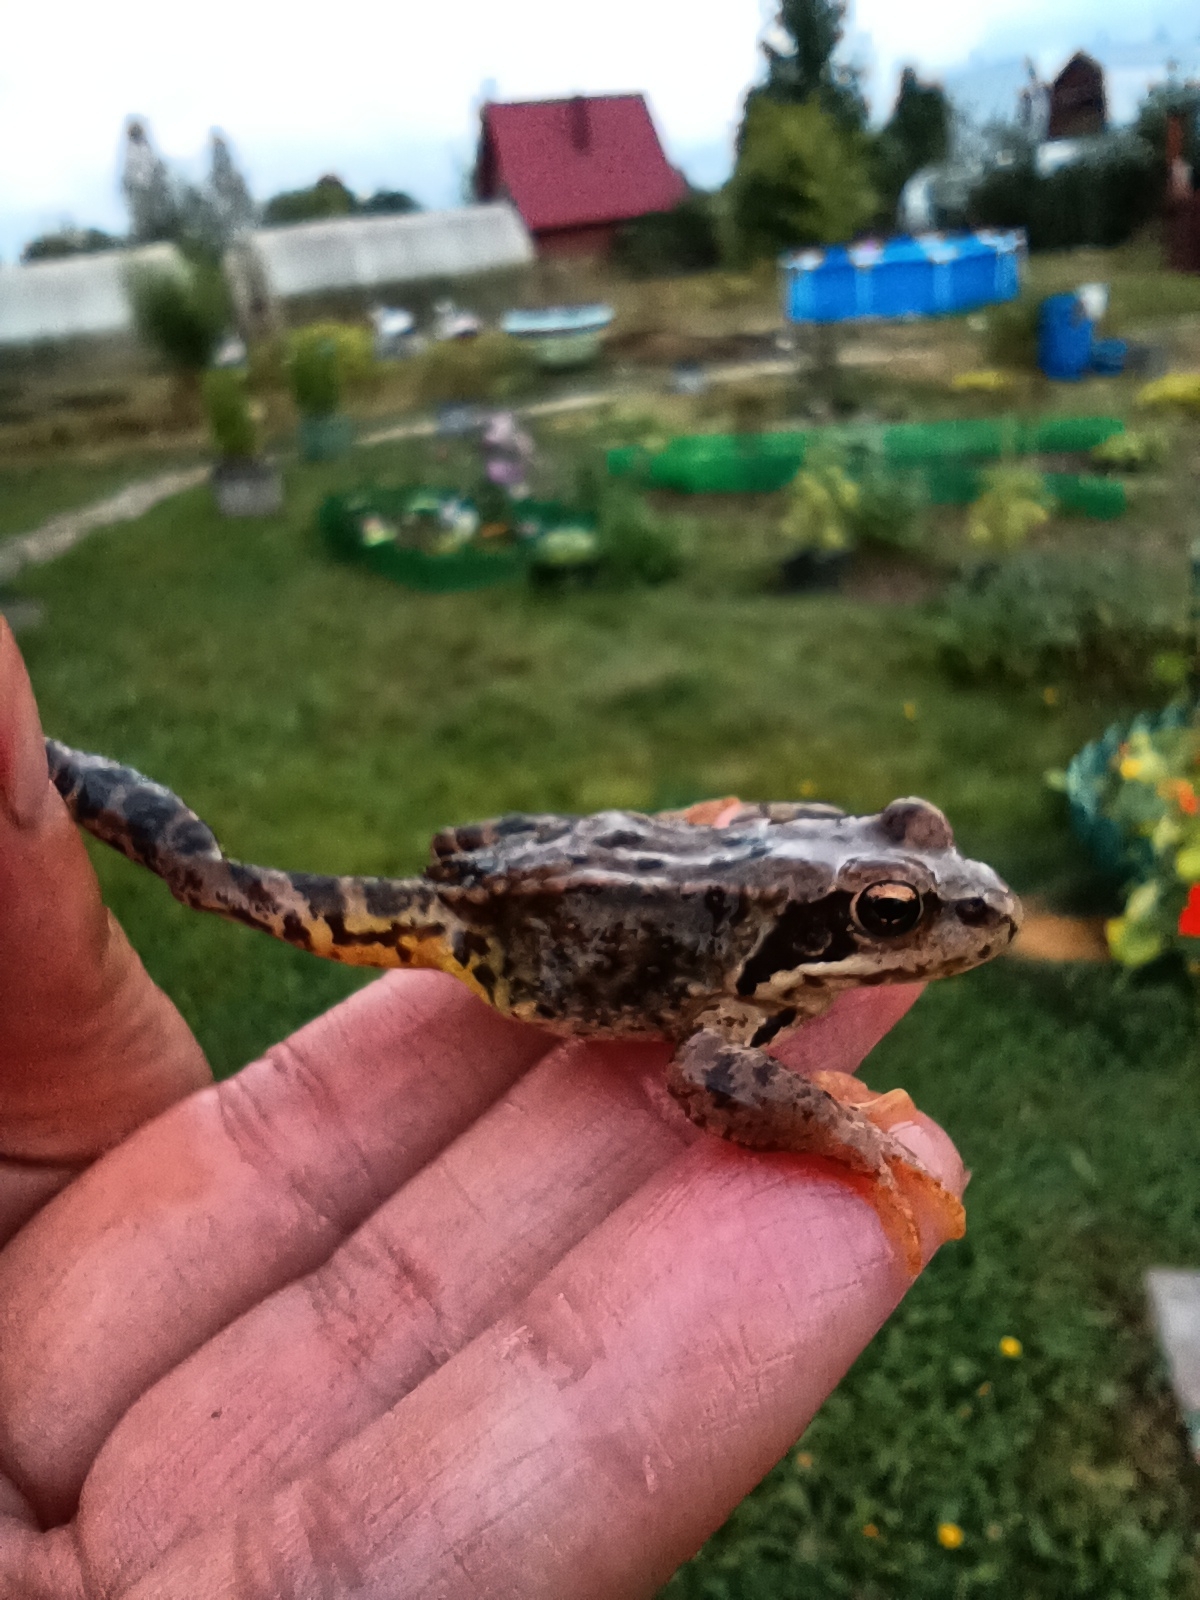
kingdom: Animalia
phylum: Chordata
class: Amphibia
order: Anura
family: Ranidae
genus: Rana
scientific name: Rana temporaria
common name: Common frog
